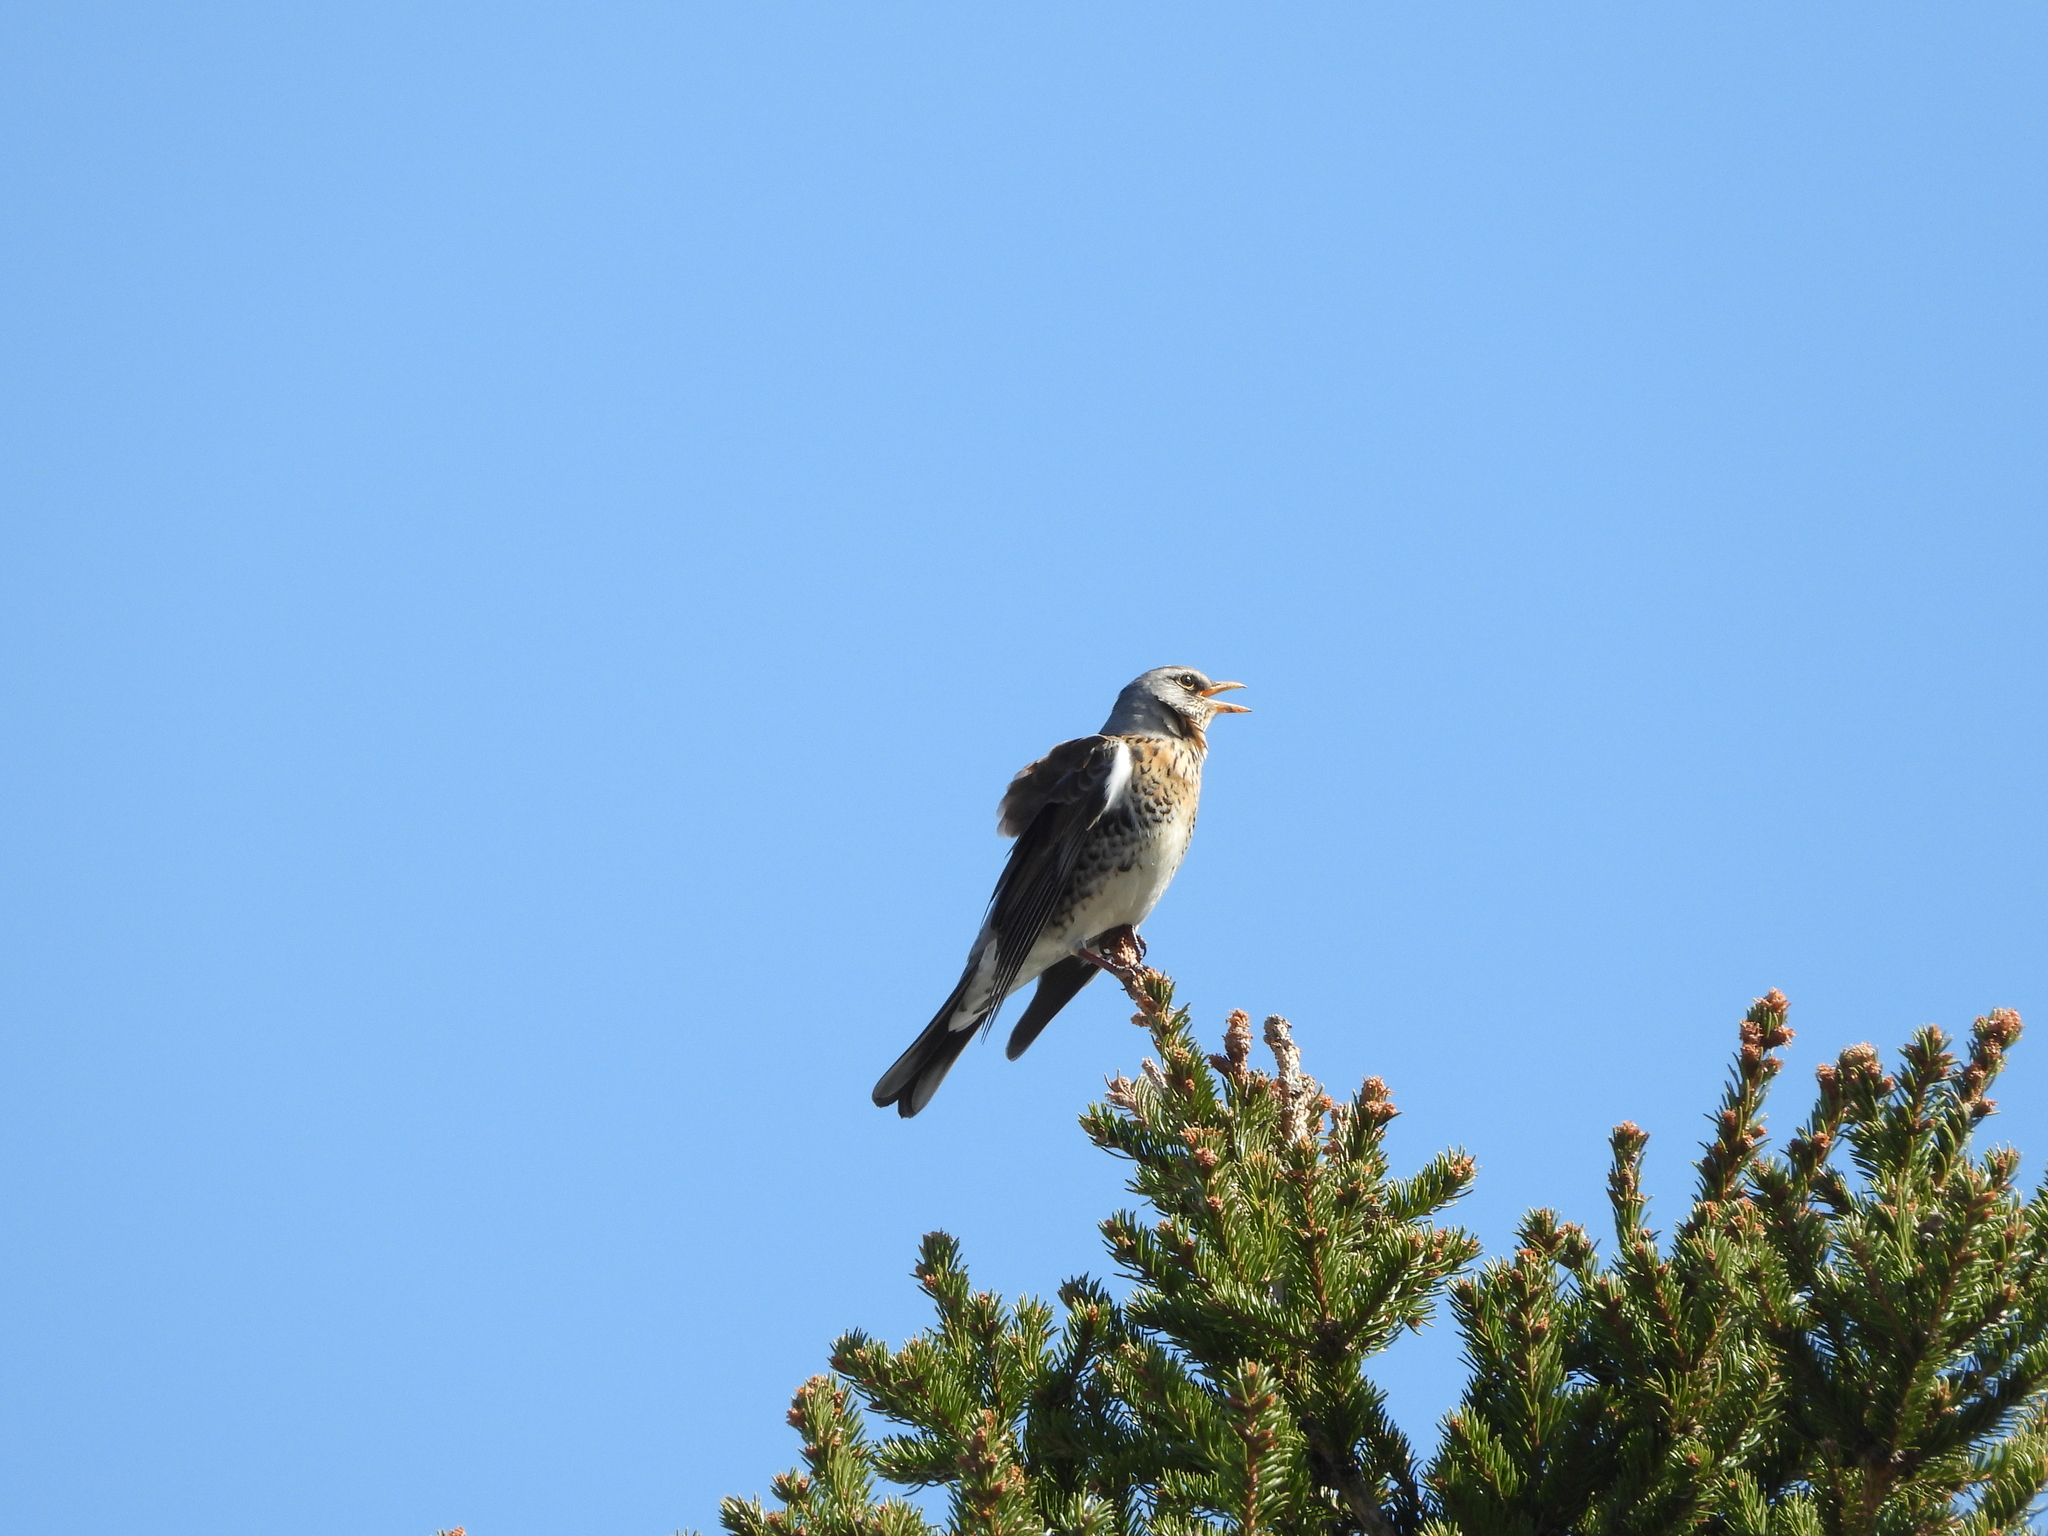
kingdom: Animalia
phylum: Chordata
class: Aves
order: Passeriformes
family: Turdidae
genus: Turdus
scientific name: Turdus pilaris
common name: Fieldfare
